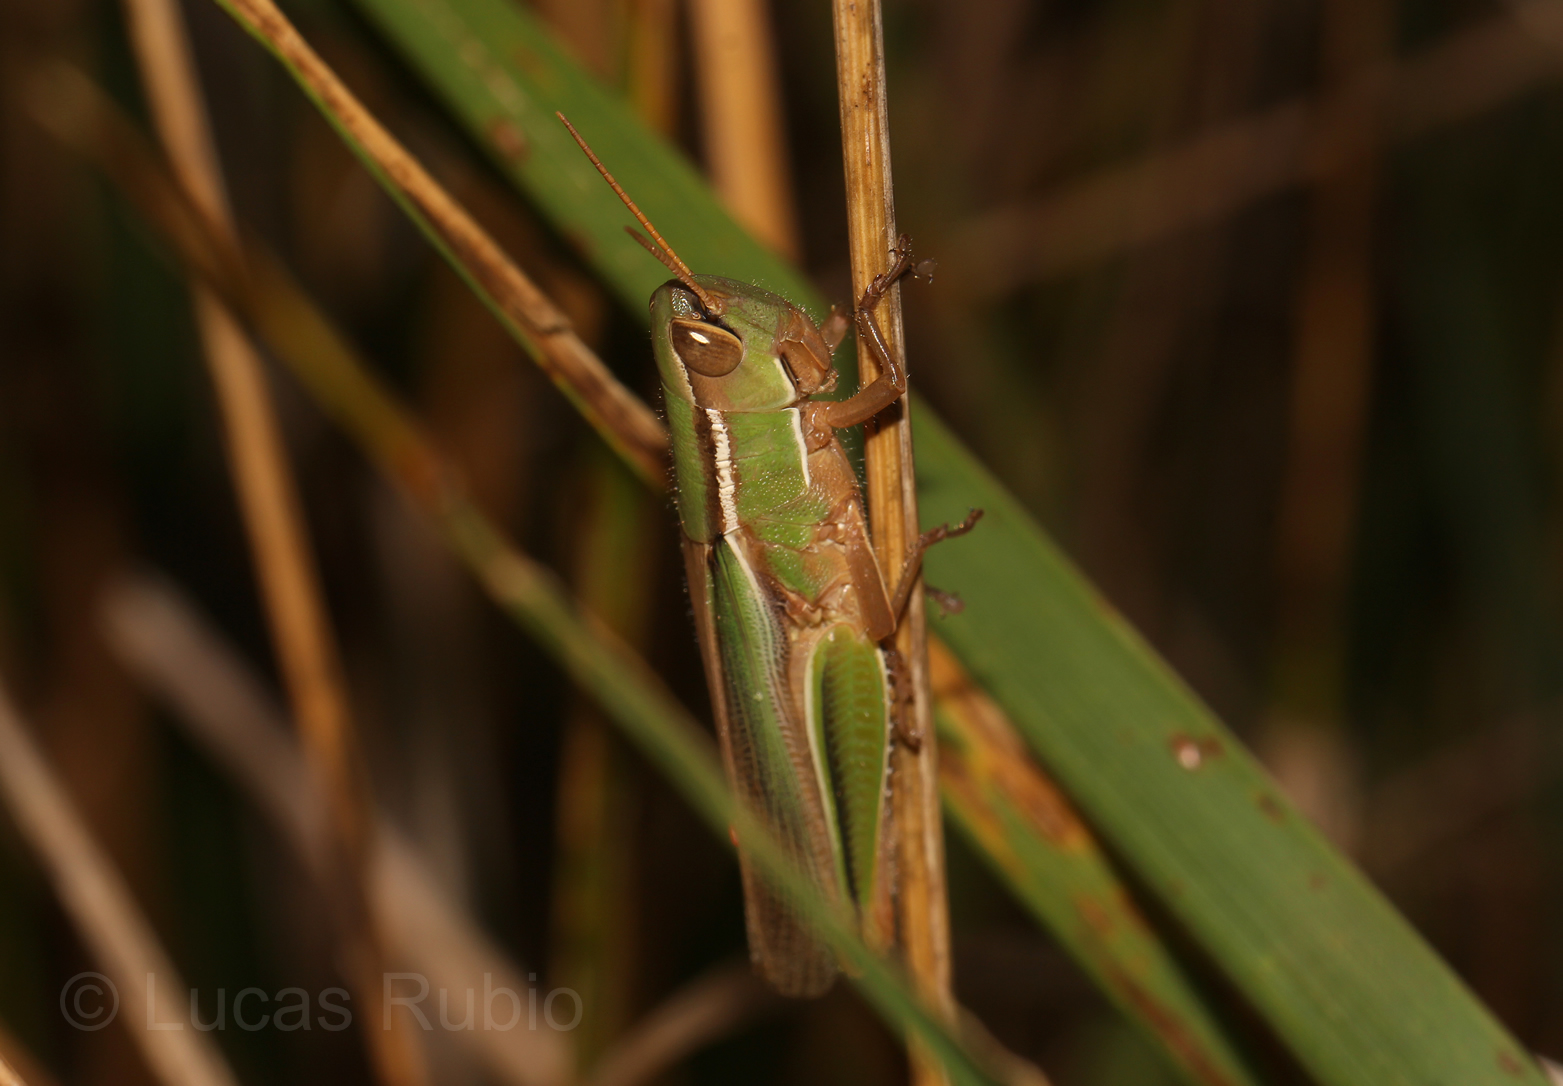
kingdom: Animalia
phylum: Arthropoda
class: Insecta
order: Orthoptera
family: Acrididae
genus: Aleuas
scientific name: Aleuas lineatus
